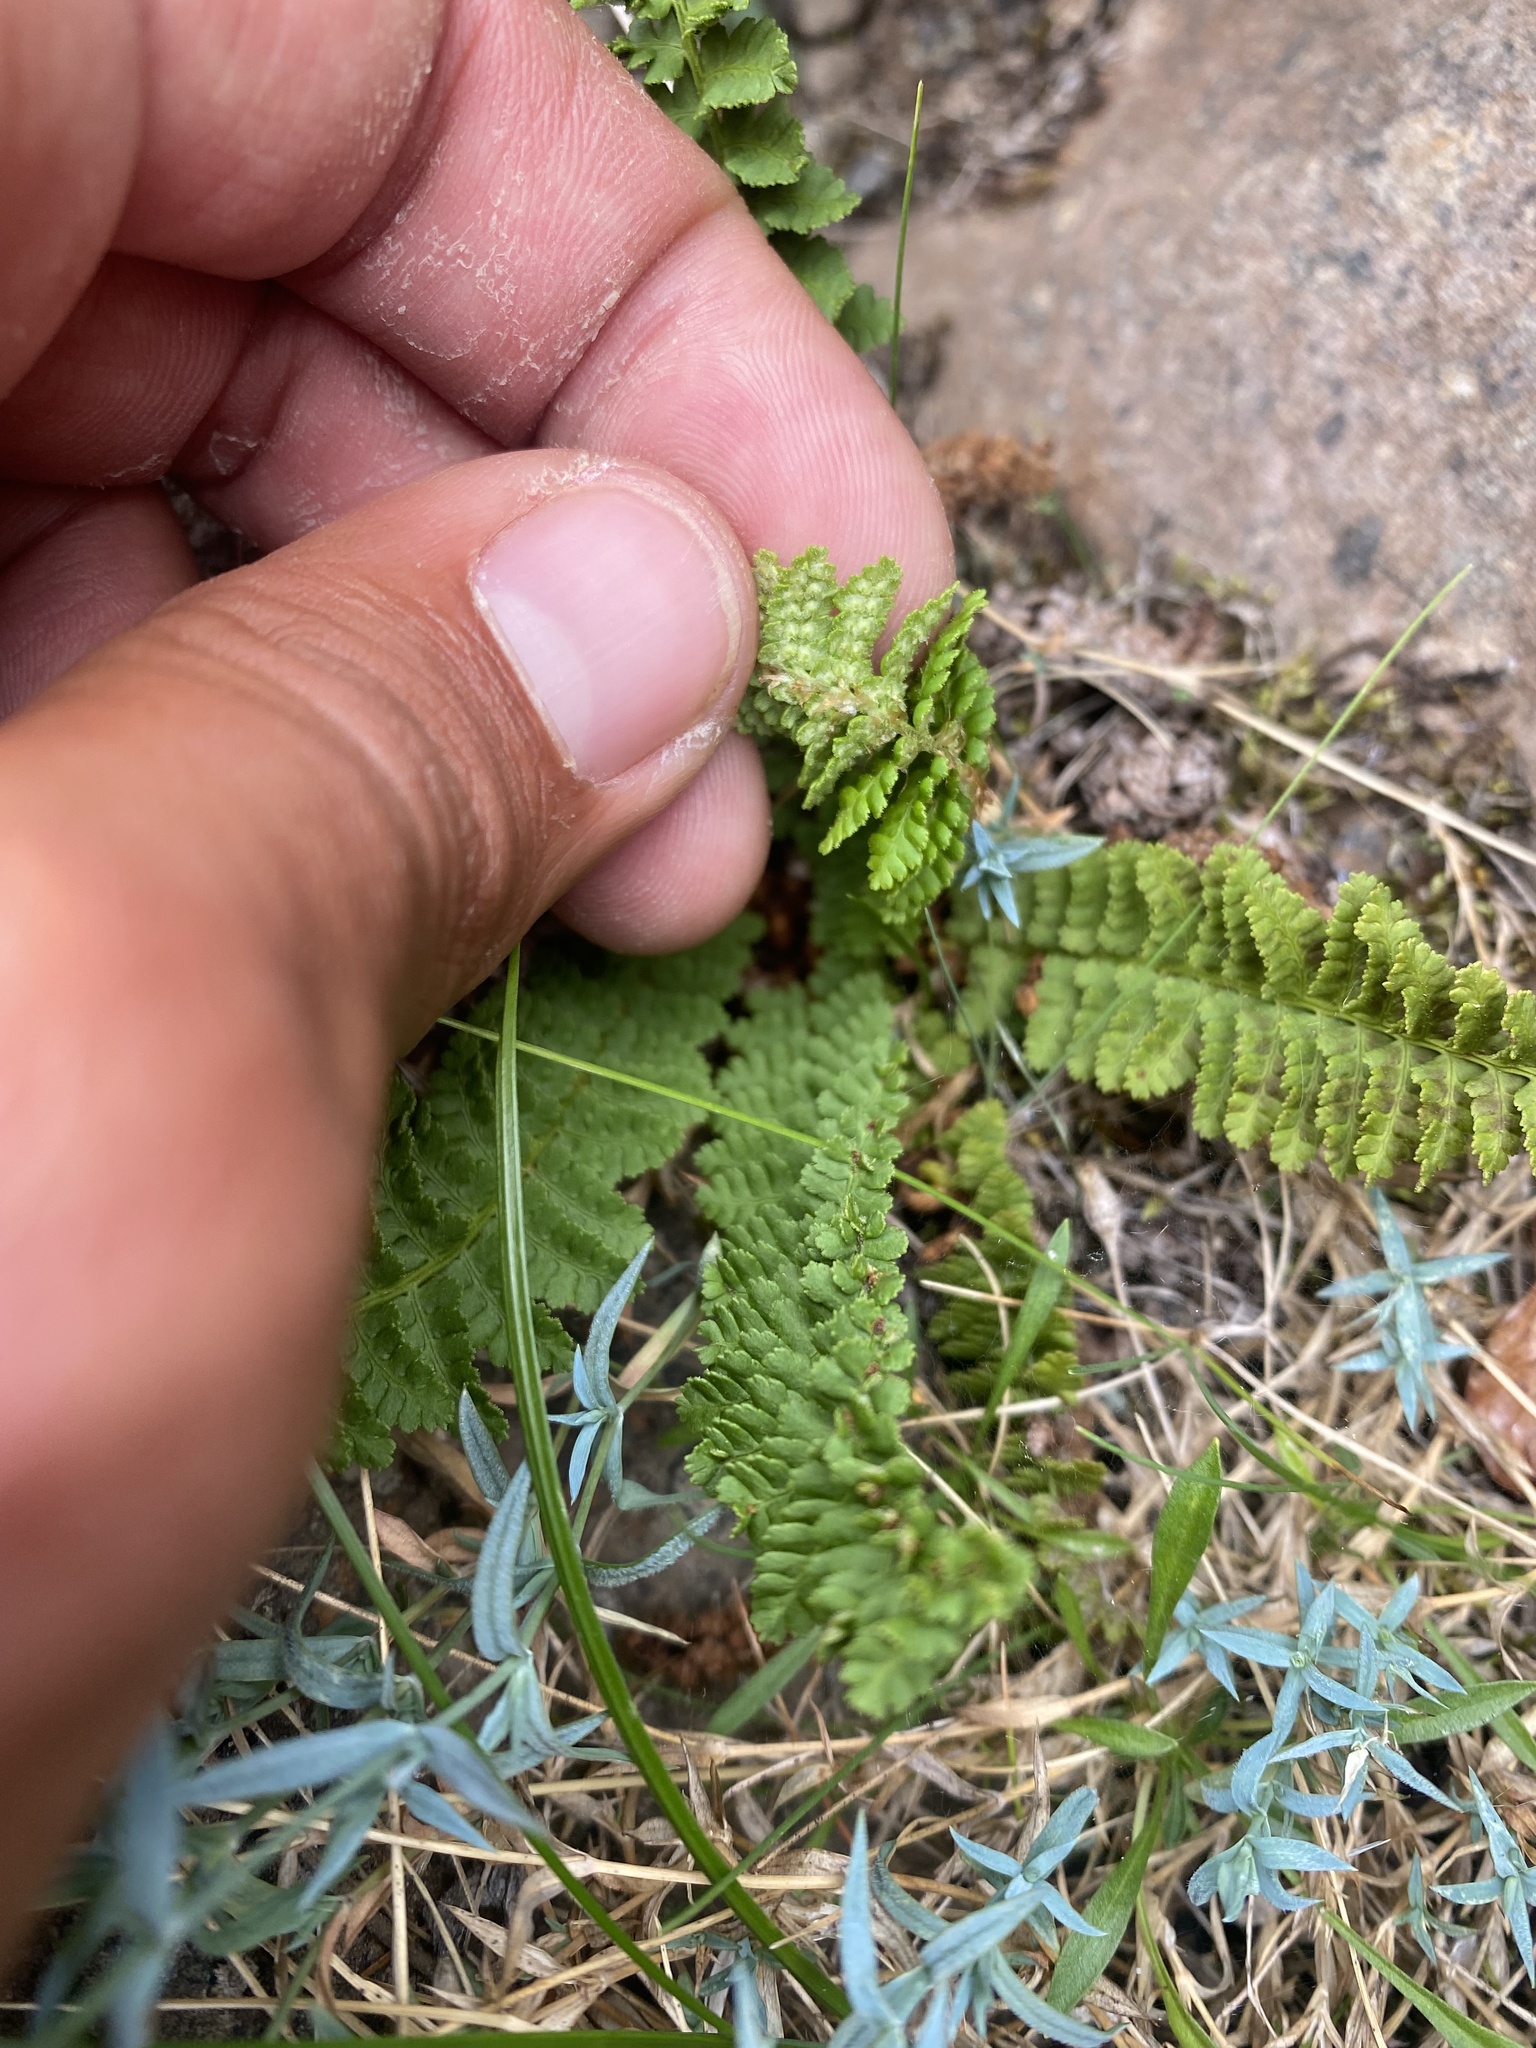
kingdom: Plantae
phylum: Tracheophyta
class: Polypodiopsida
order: Polypodiales
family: Dryopteridaceae
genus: Dryopteris
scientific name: Dryopteris fragrans
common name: Fragrant wood fern
